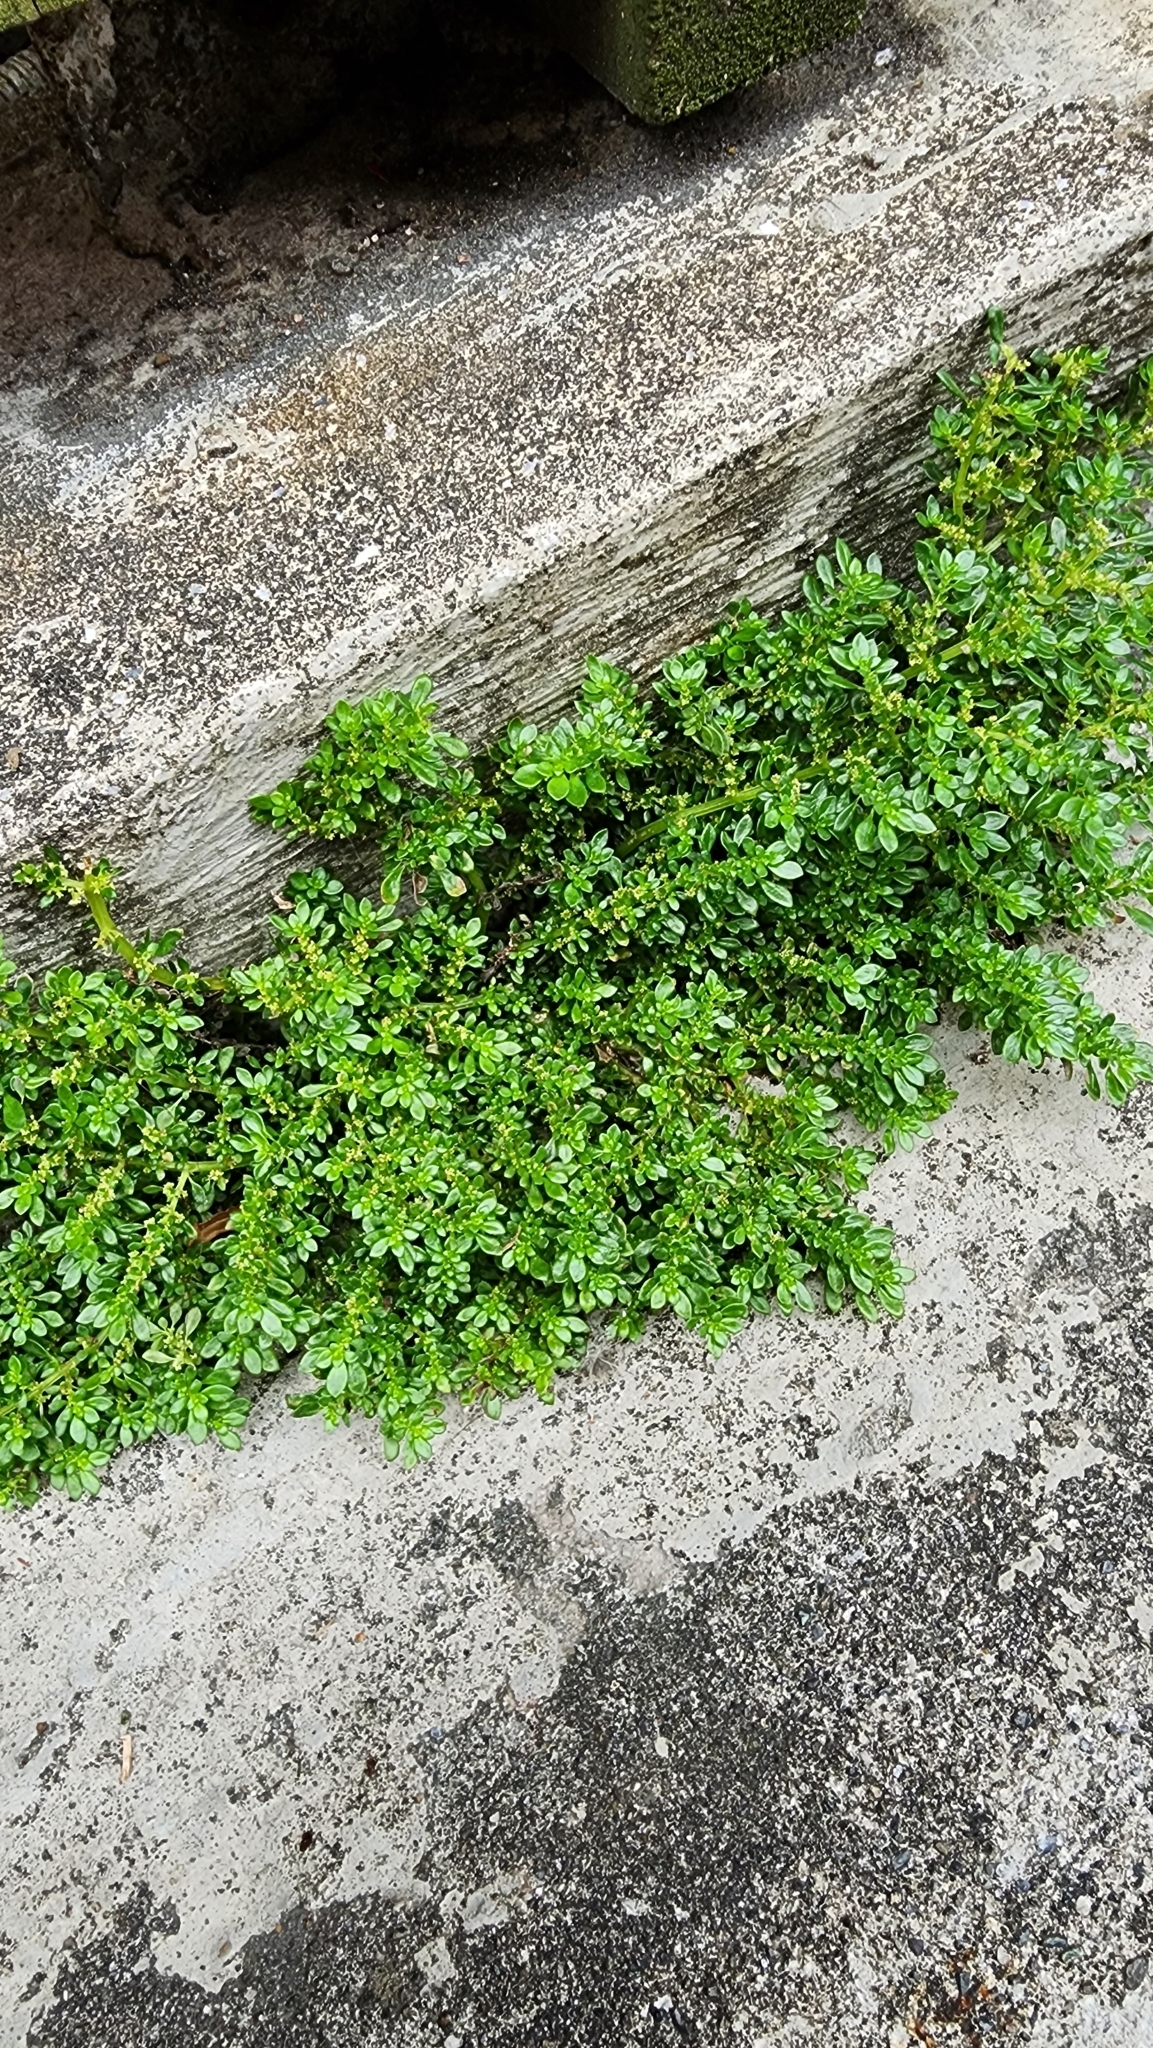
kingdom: Plantae
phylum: Tracheophyta
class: Magnoliopsida
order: Rosales
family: Urticaceae
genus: Pilea
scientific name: Pilea microphylla
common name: Artillery-plant
